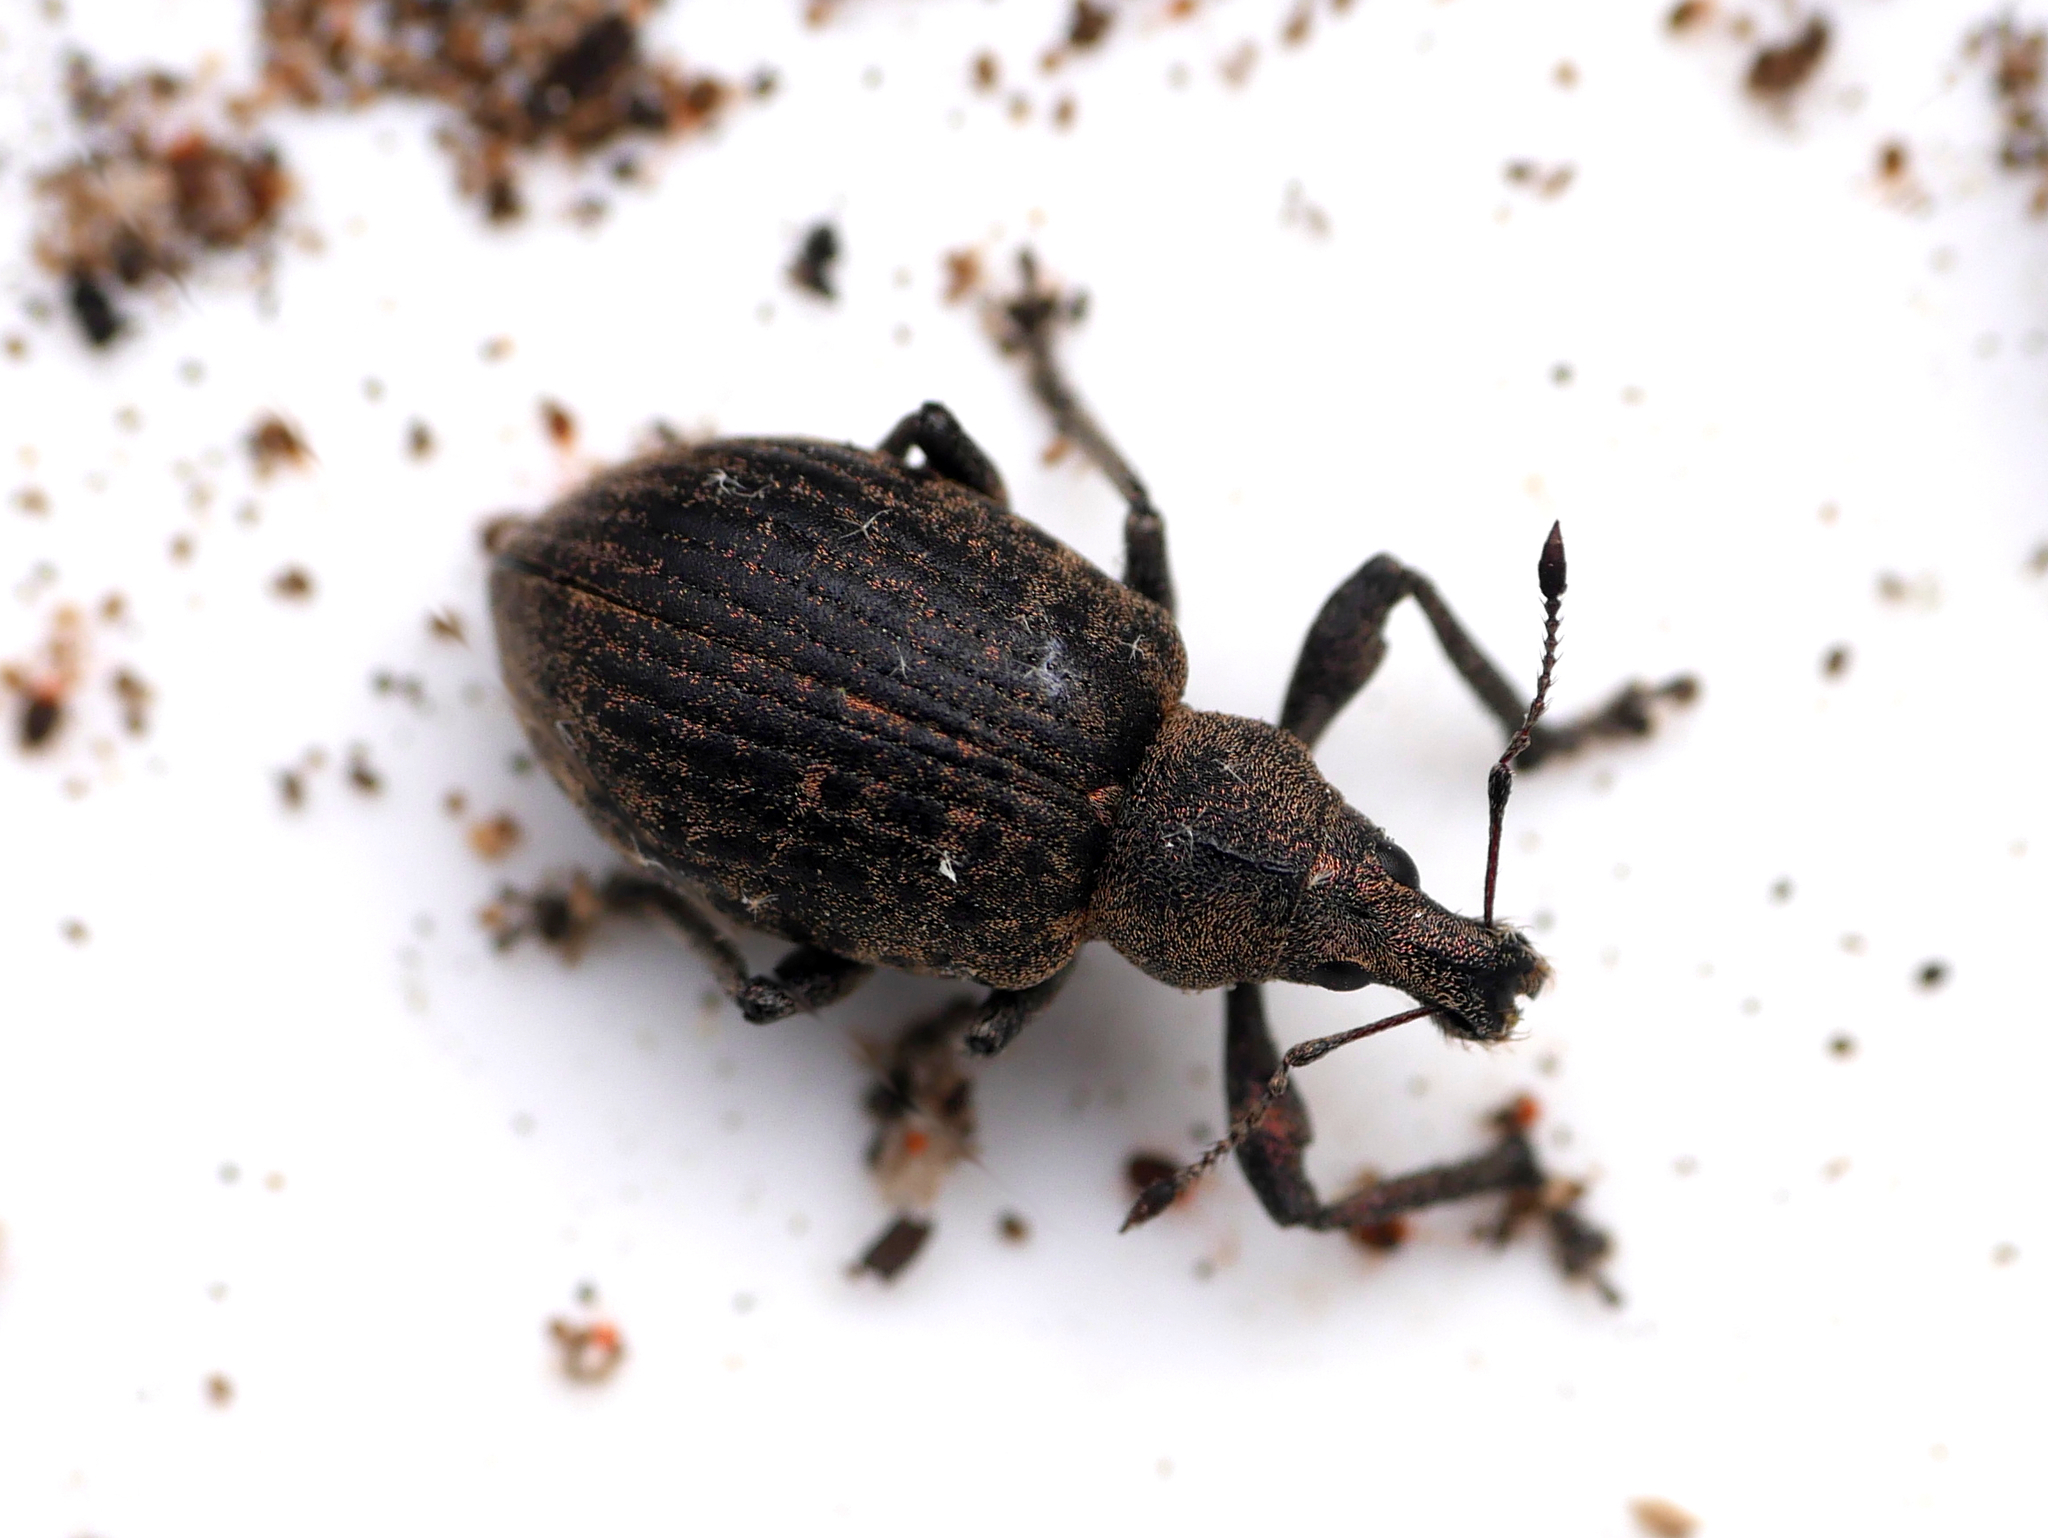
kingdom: Animalia
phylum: Arthropoda
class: Insecta
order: Coleoptera
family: Curculionidae
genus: Liophloeus
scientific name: Liophloeus tessulatus
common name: Weevil
